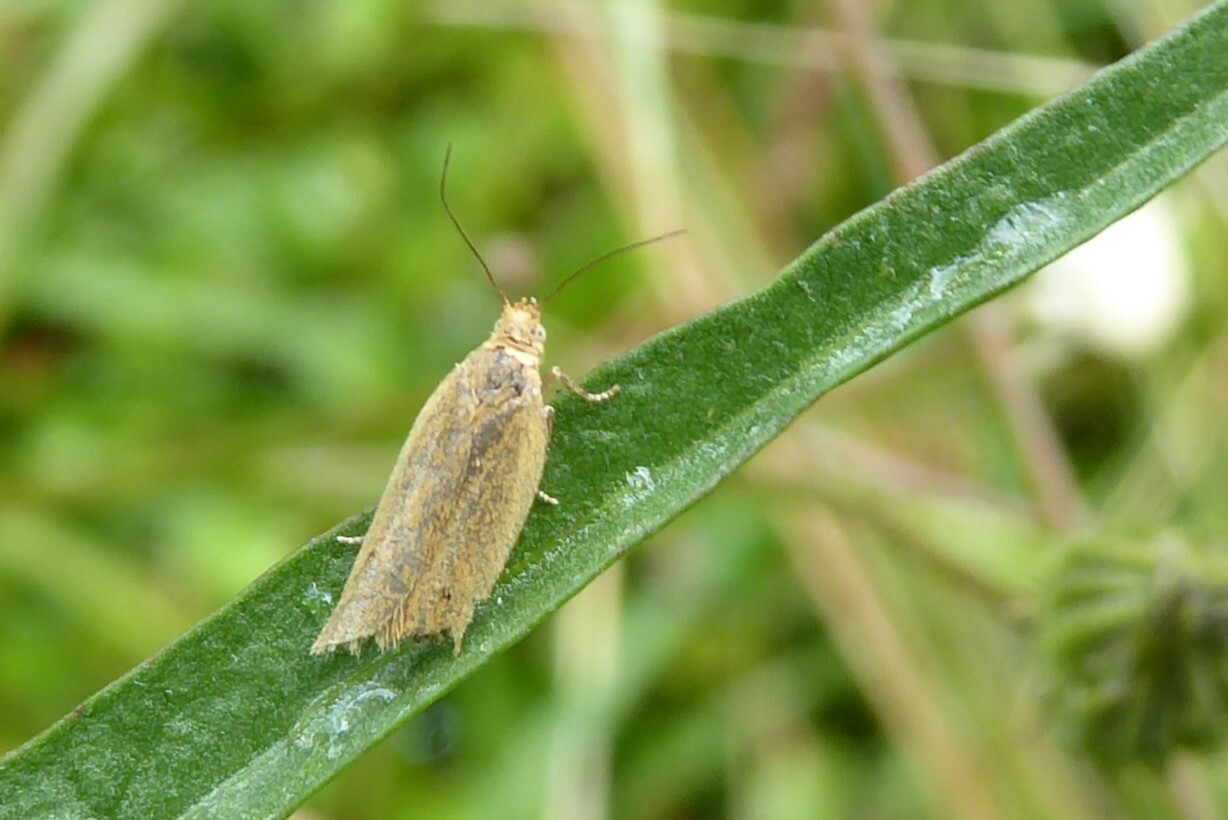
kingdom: Animalia
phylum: Arthropoda
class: Insecta
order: Lepidoptera
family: Tortricidae
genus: Epichorista
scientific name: Epichorista siriana
